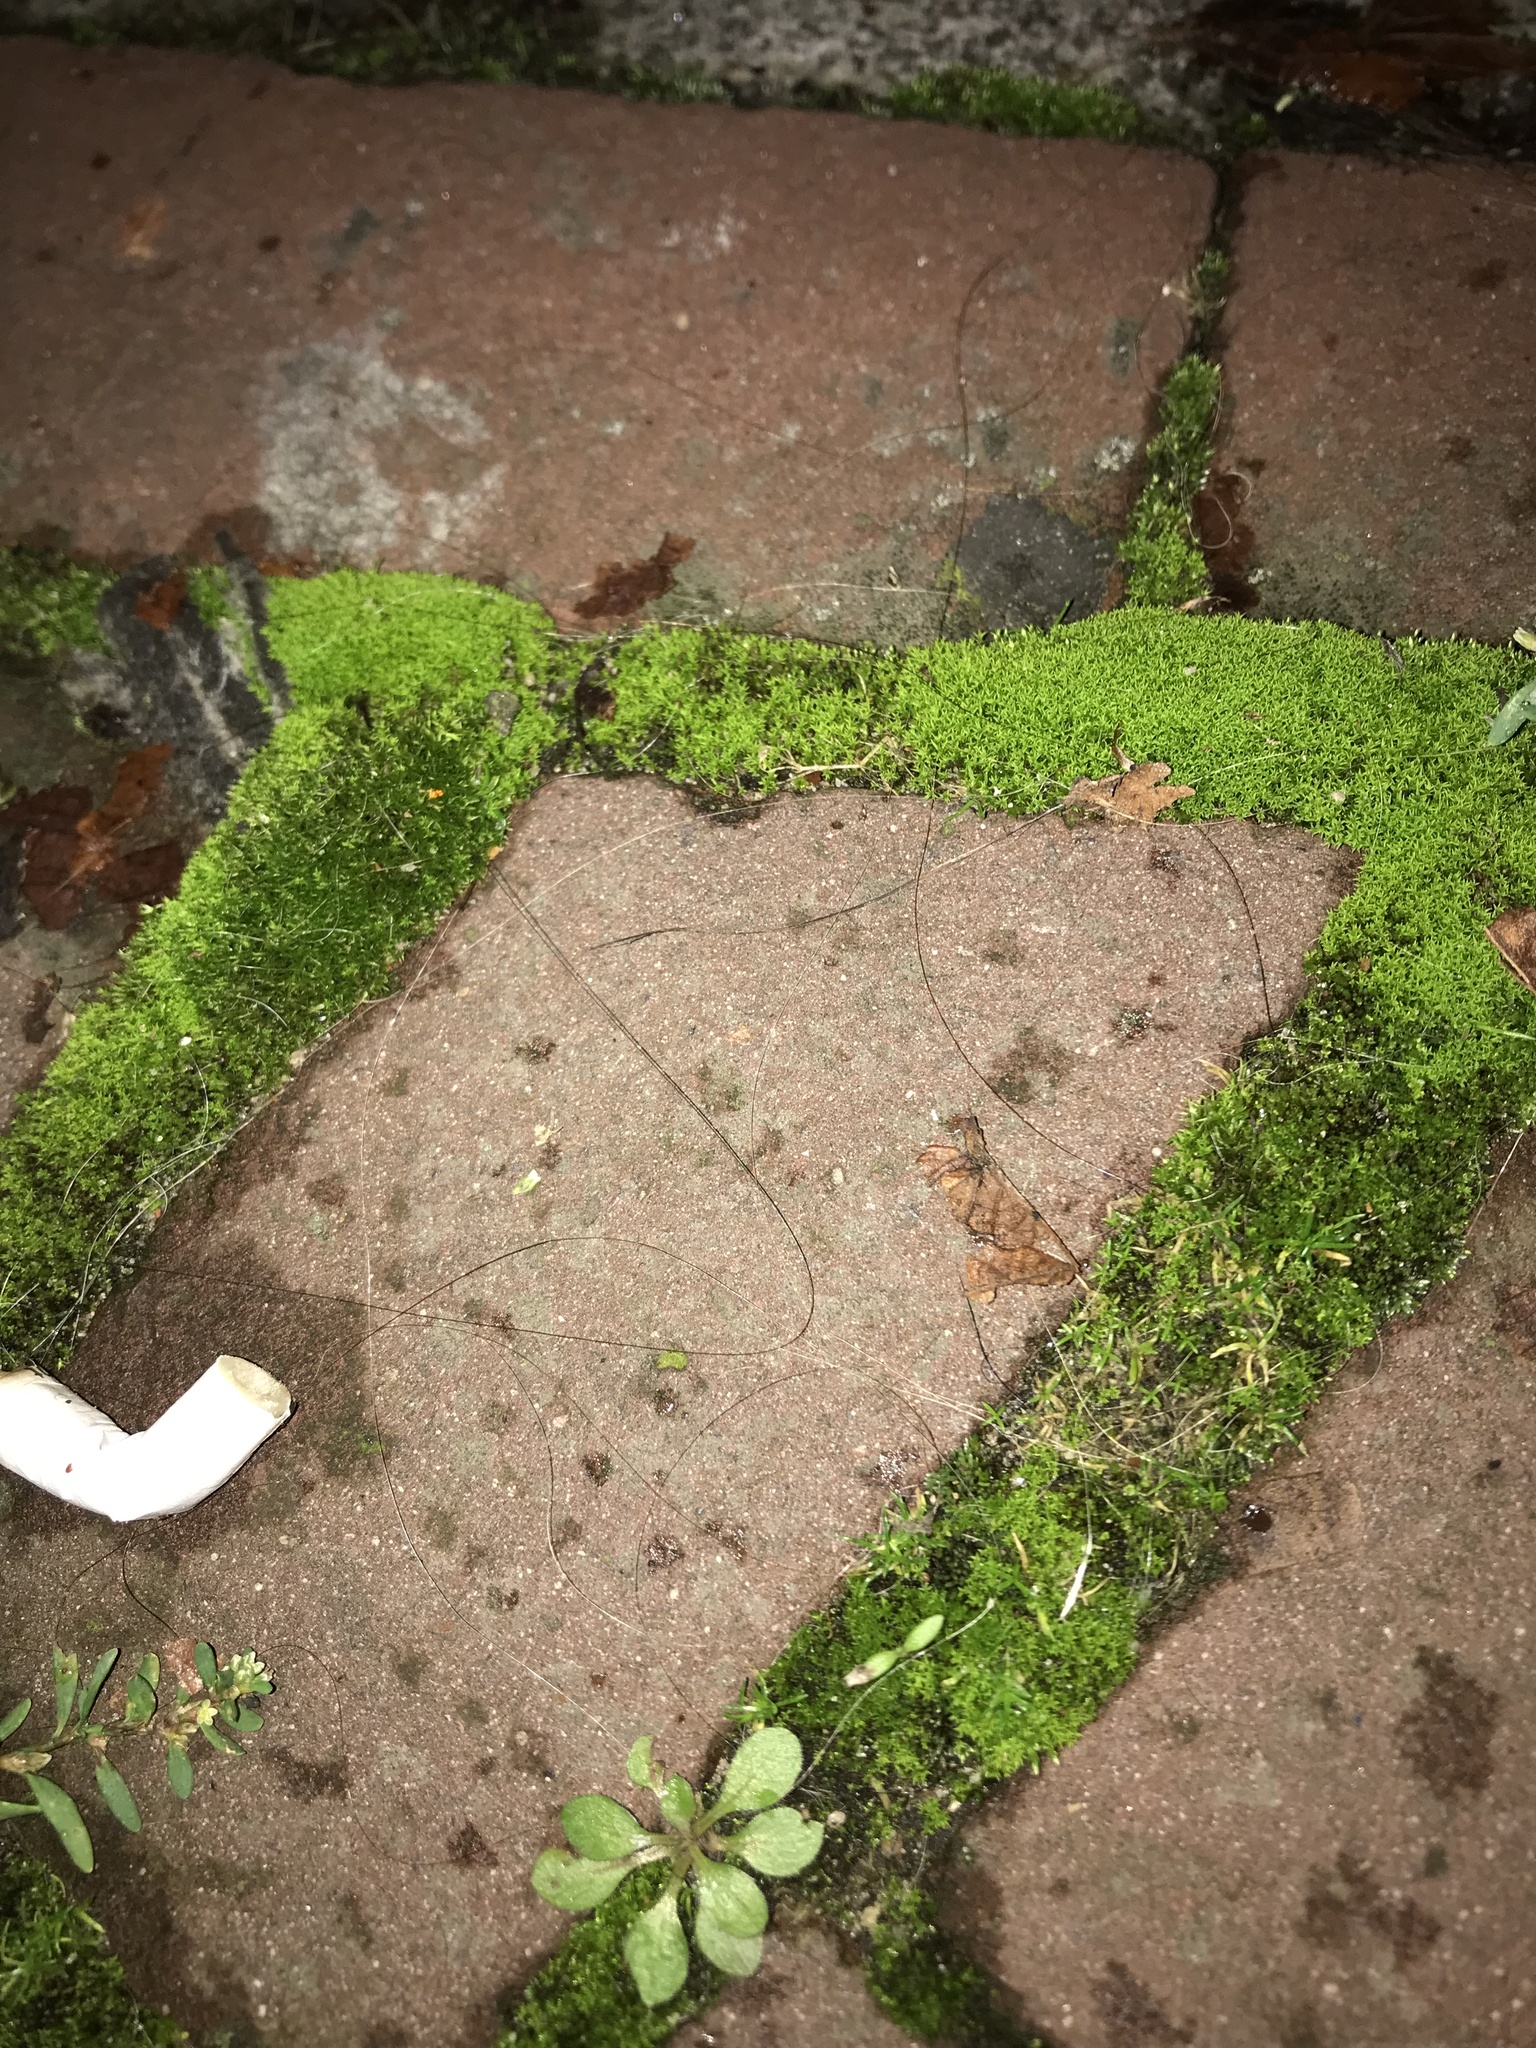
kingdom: Plantae
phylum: Bryophyta
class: Bryopsida
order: Dicranales
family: Ditrichaceae
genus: Ceratodon
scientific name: Ceratodon purpureus
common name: Redshank
